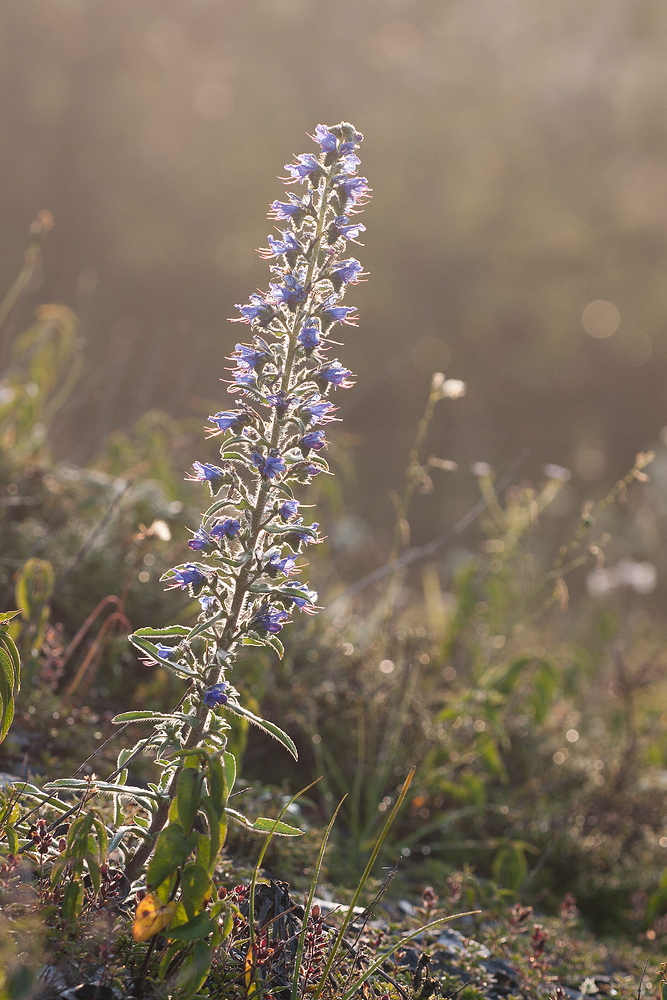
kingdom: Plantae
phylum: Tracheophyta
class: Magnoliopsida
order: Boraginales
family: Boraginaceae
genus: Echium
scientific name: Echium vulgare
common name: Common viper's bugloss
